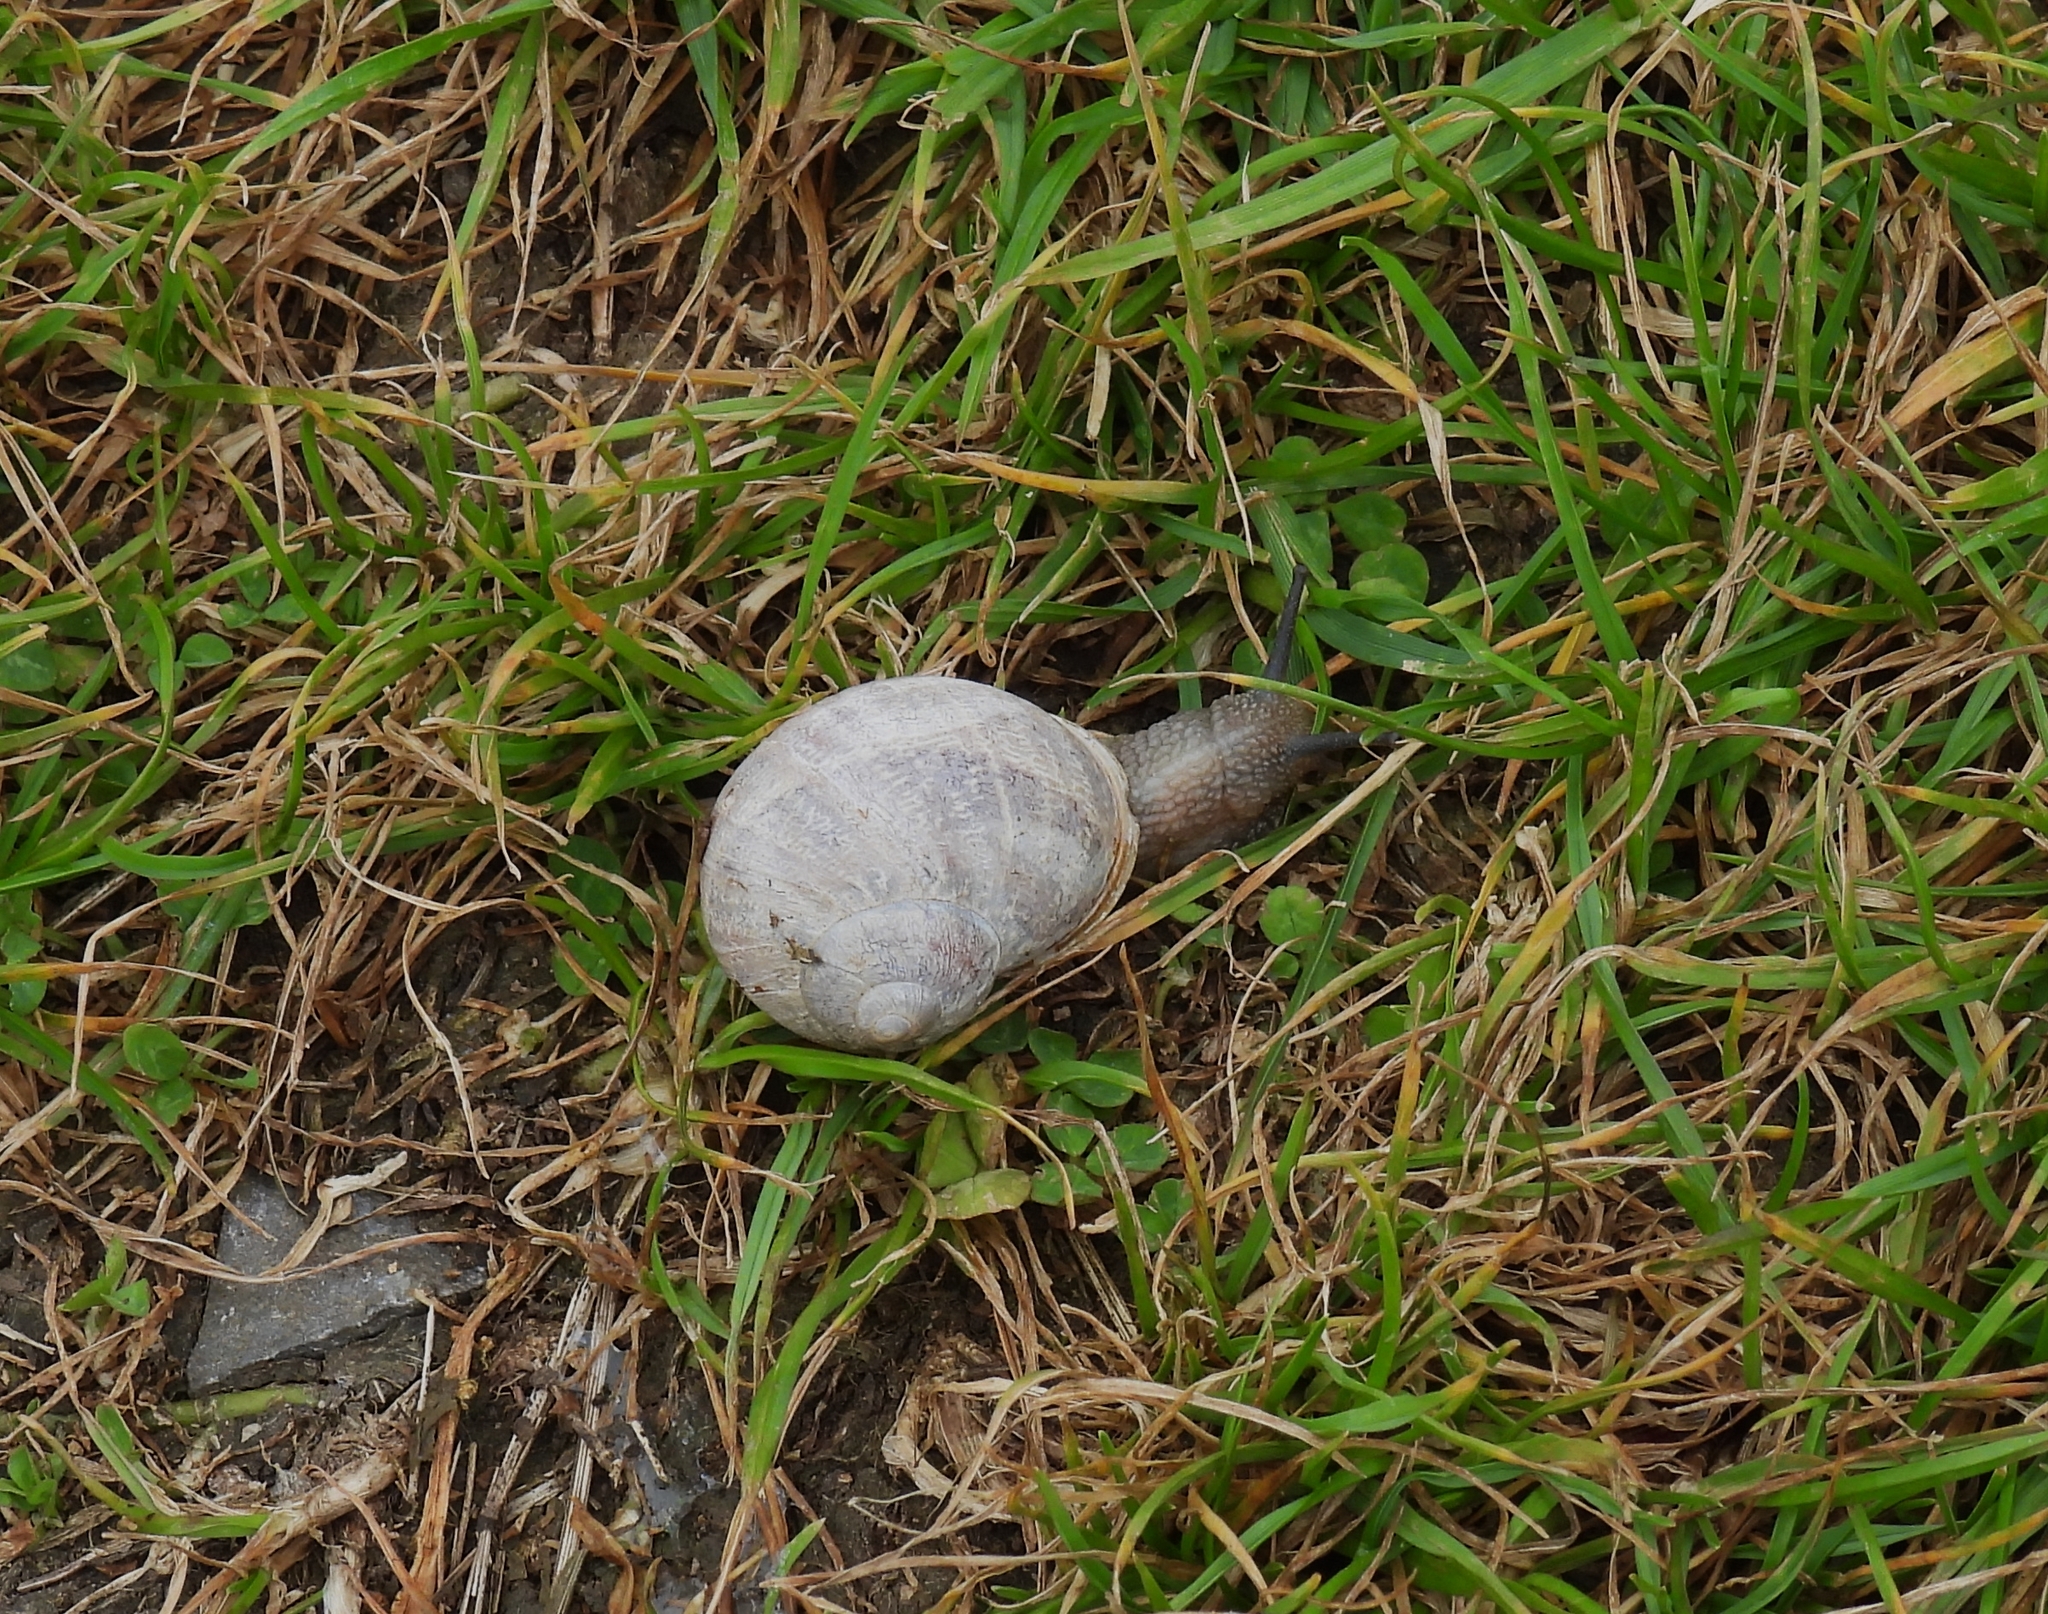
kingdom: Animalia
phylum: Mollusca
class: Gastropoda
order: Stylommatophora
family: Helicidae
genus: Cornu
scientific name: Cornu aspersum
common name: Brown garden snail
